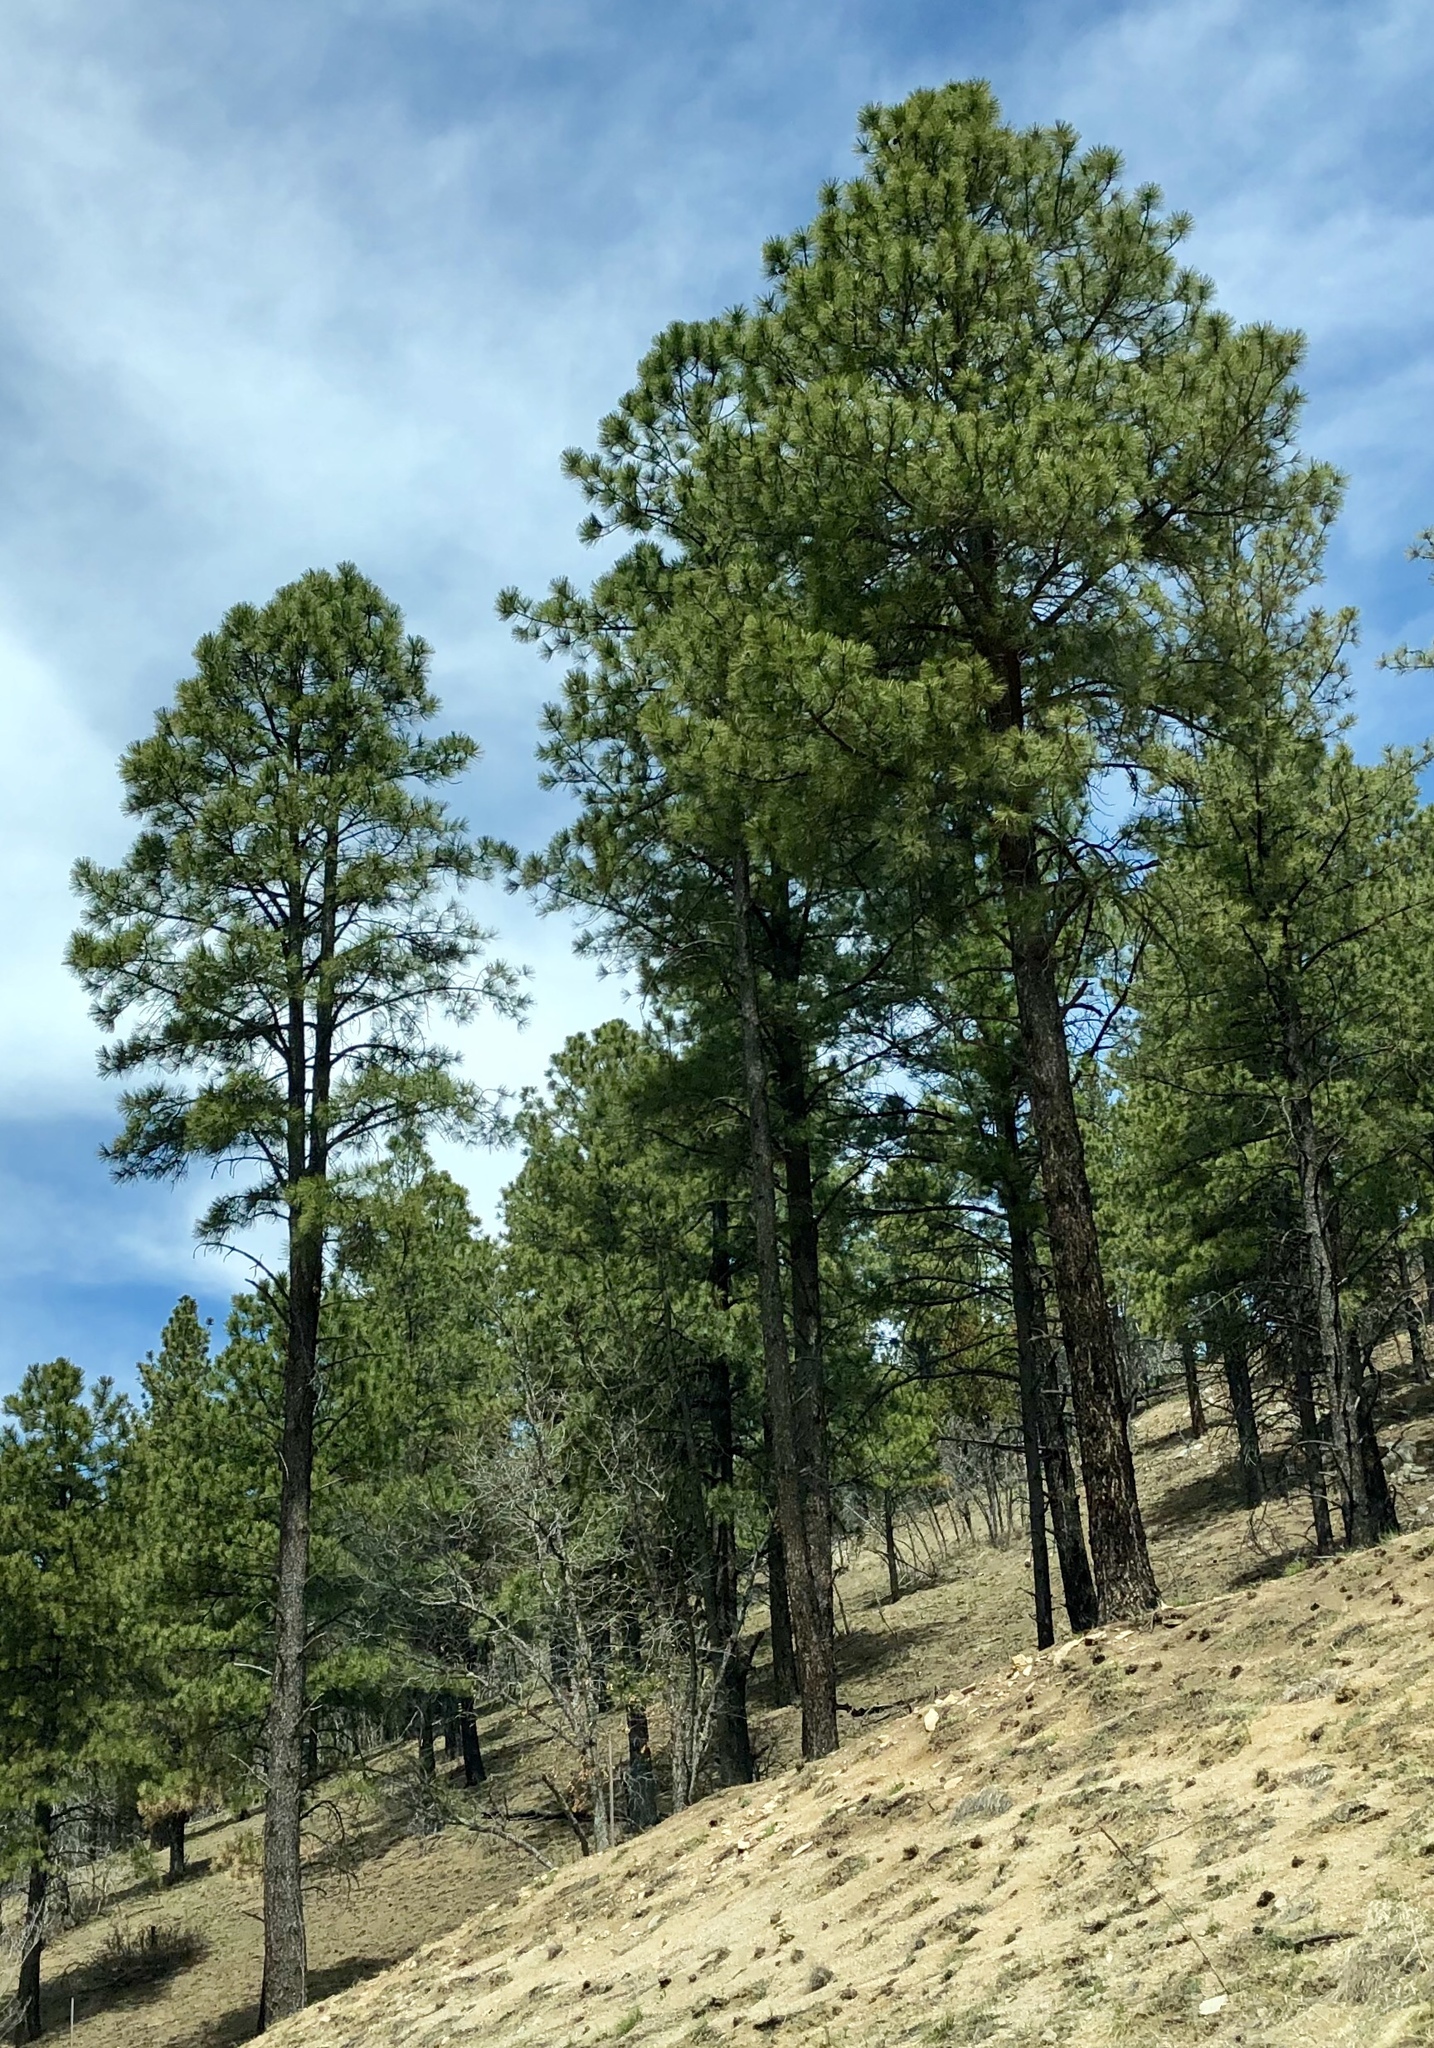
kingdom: Plantae
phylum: Tracheophyta
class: Pinopsida
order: Pinales
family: Pinaceae
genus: Pinus
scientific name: Pinus ponderosa
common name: Western yellow-pine
